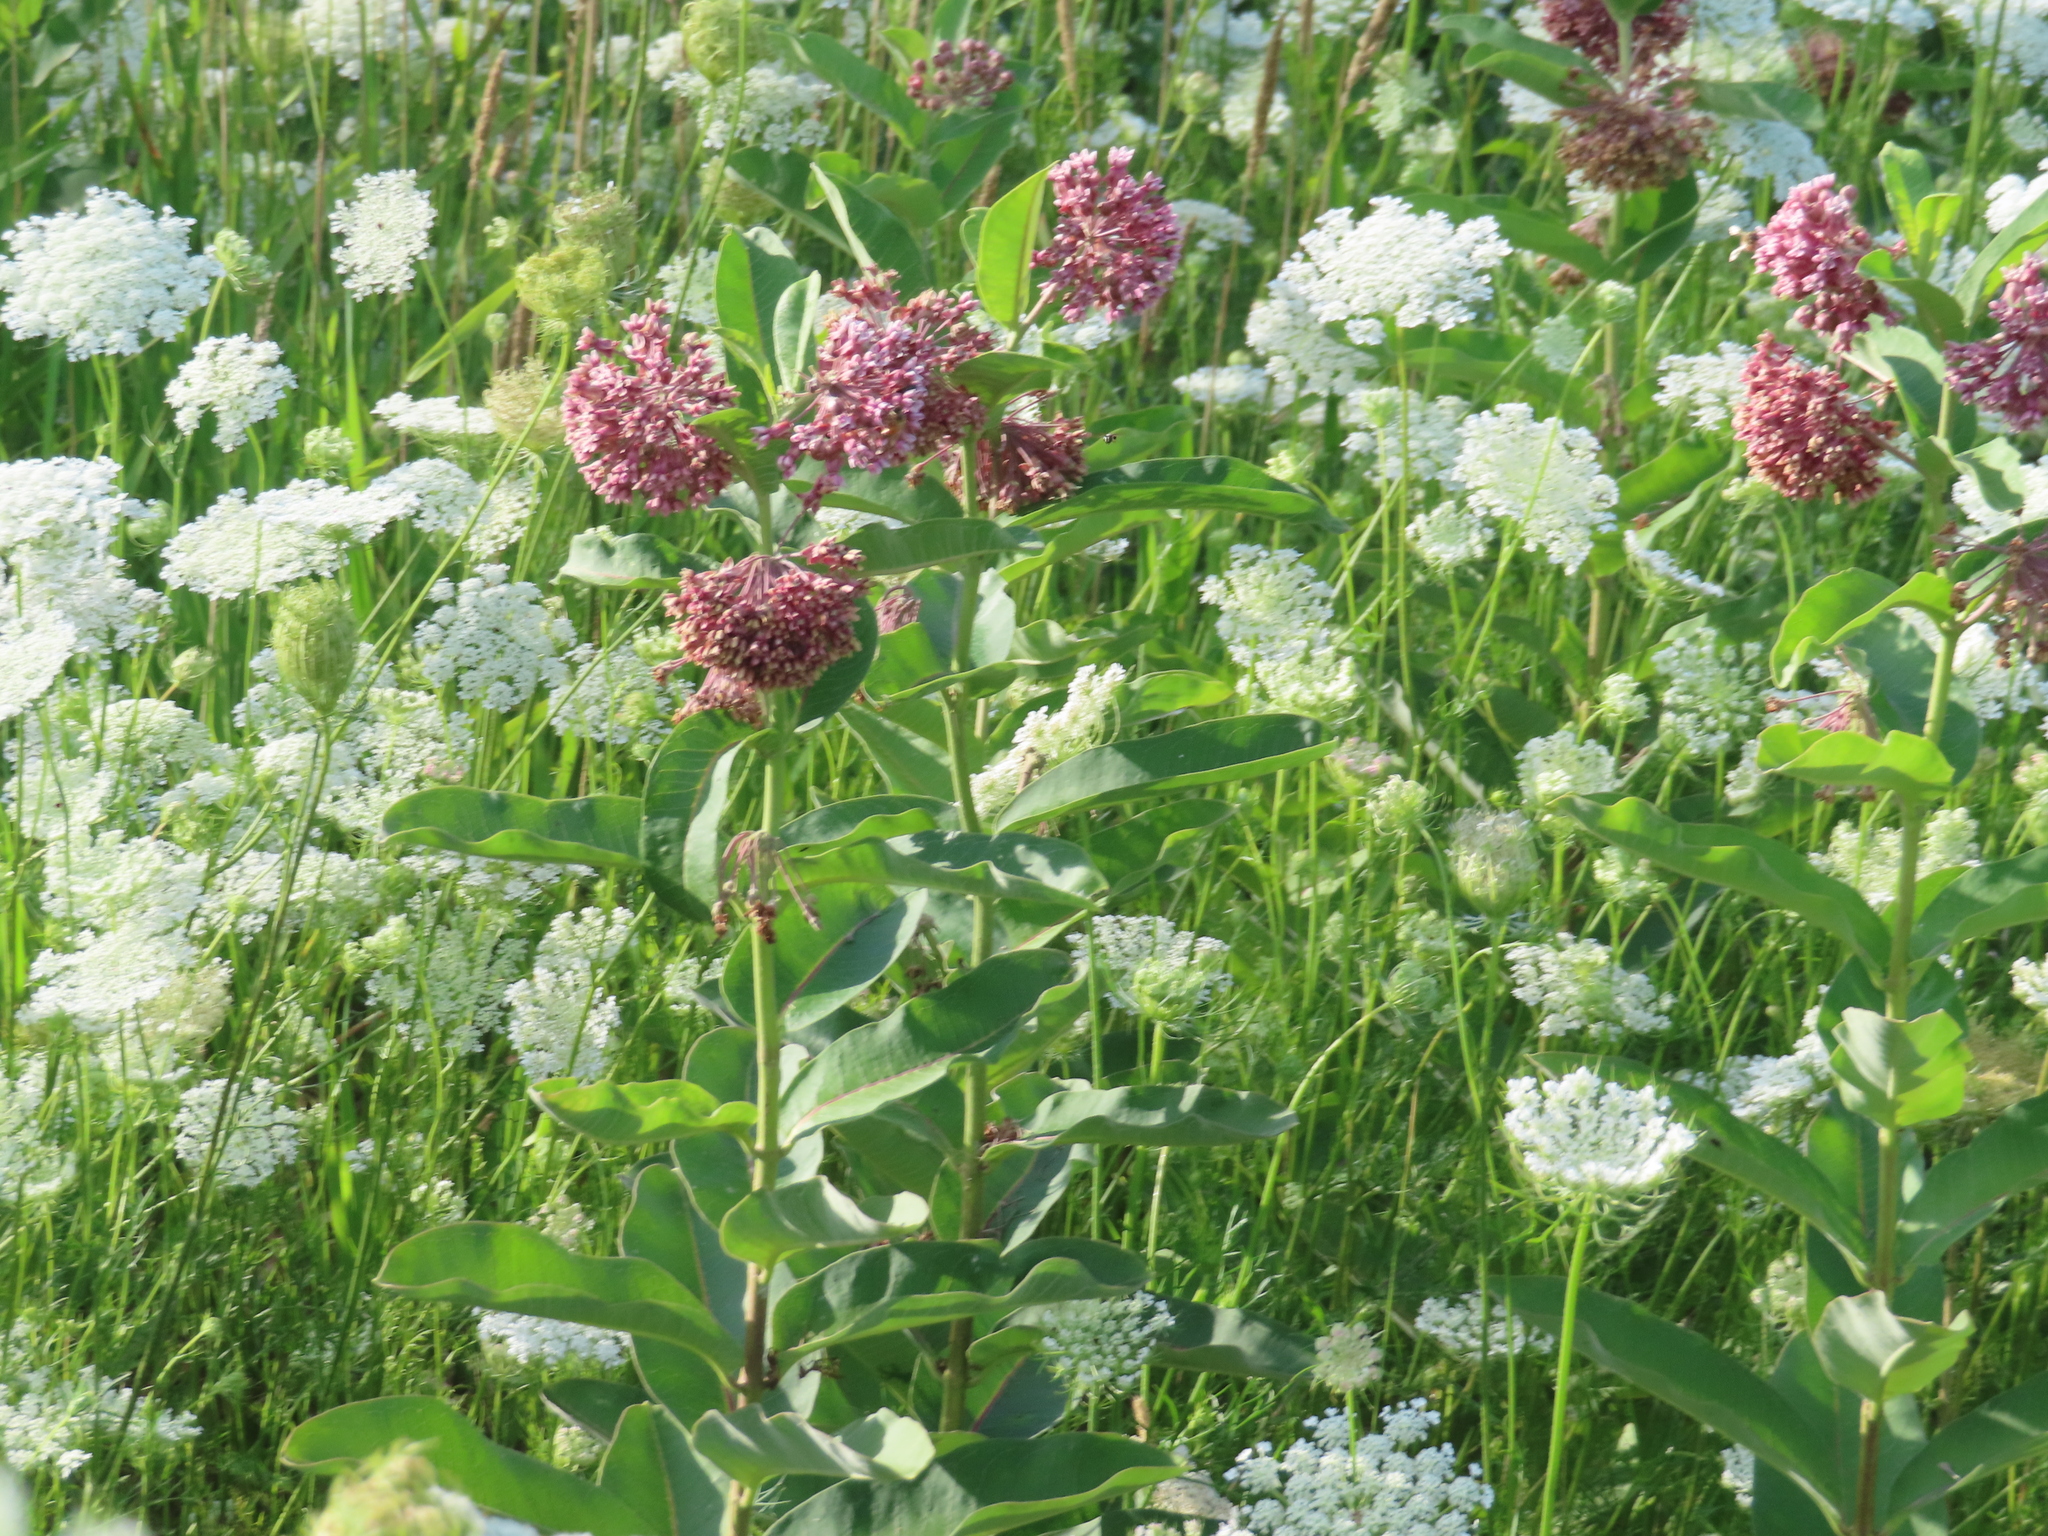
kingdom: Plantae
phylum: Tracheophyta
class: Magnoliopsida
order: Gentianales
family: Apocynaceae
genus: Asclepias
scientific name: Asclepias syriaca
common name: Common milkweed
